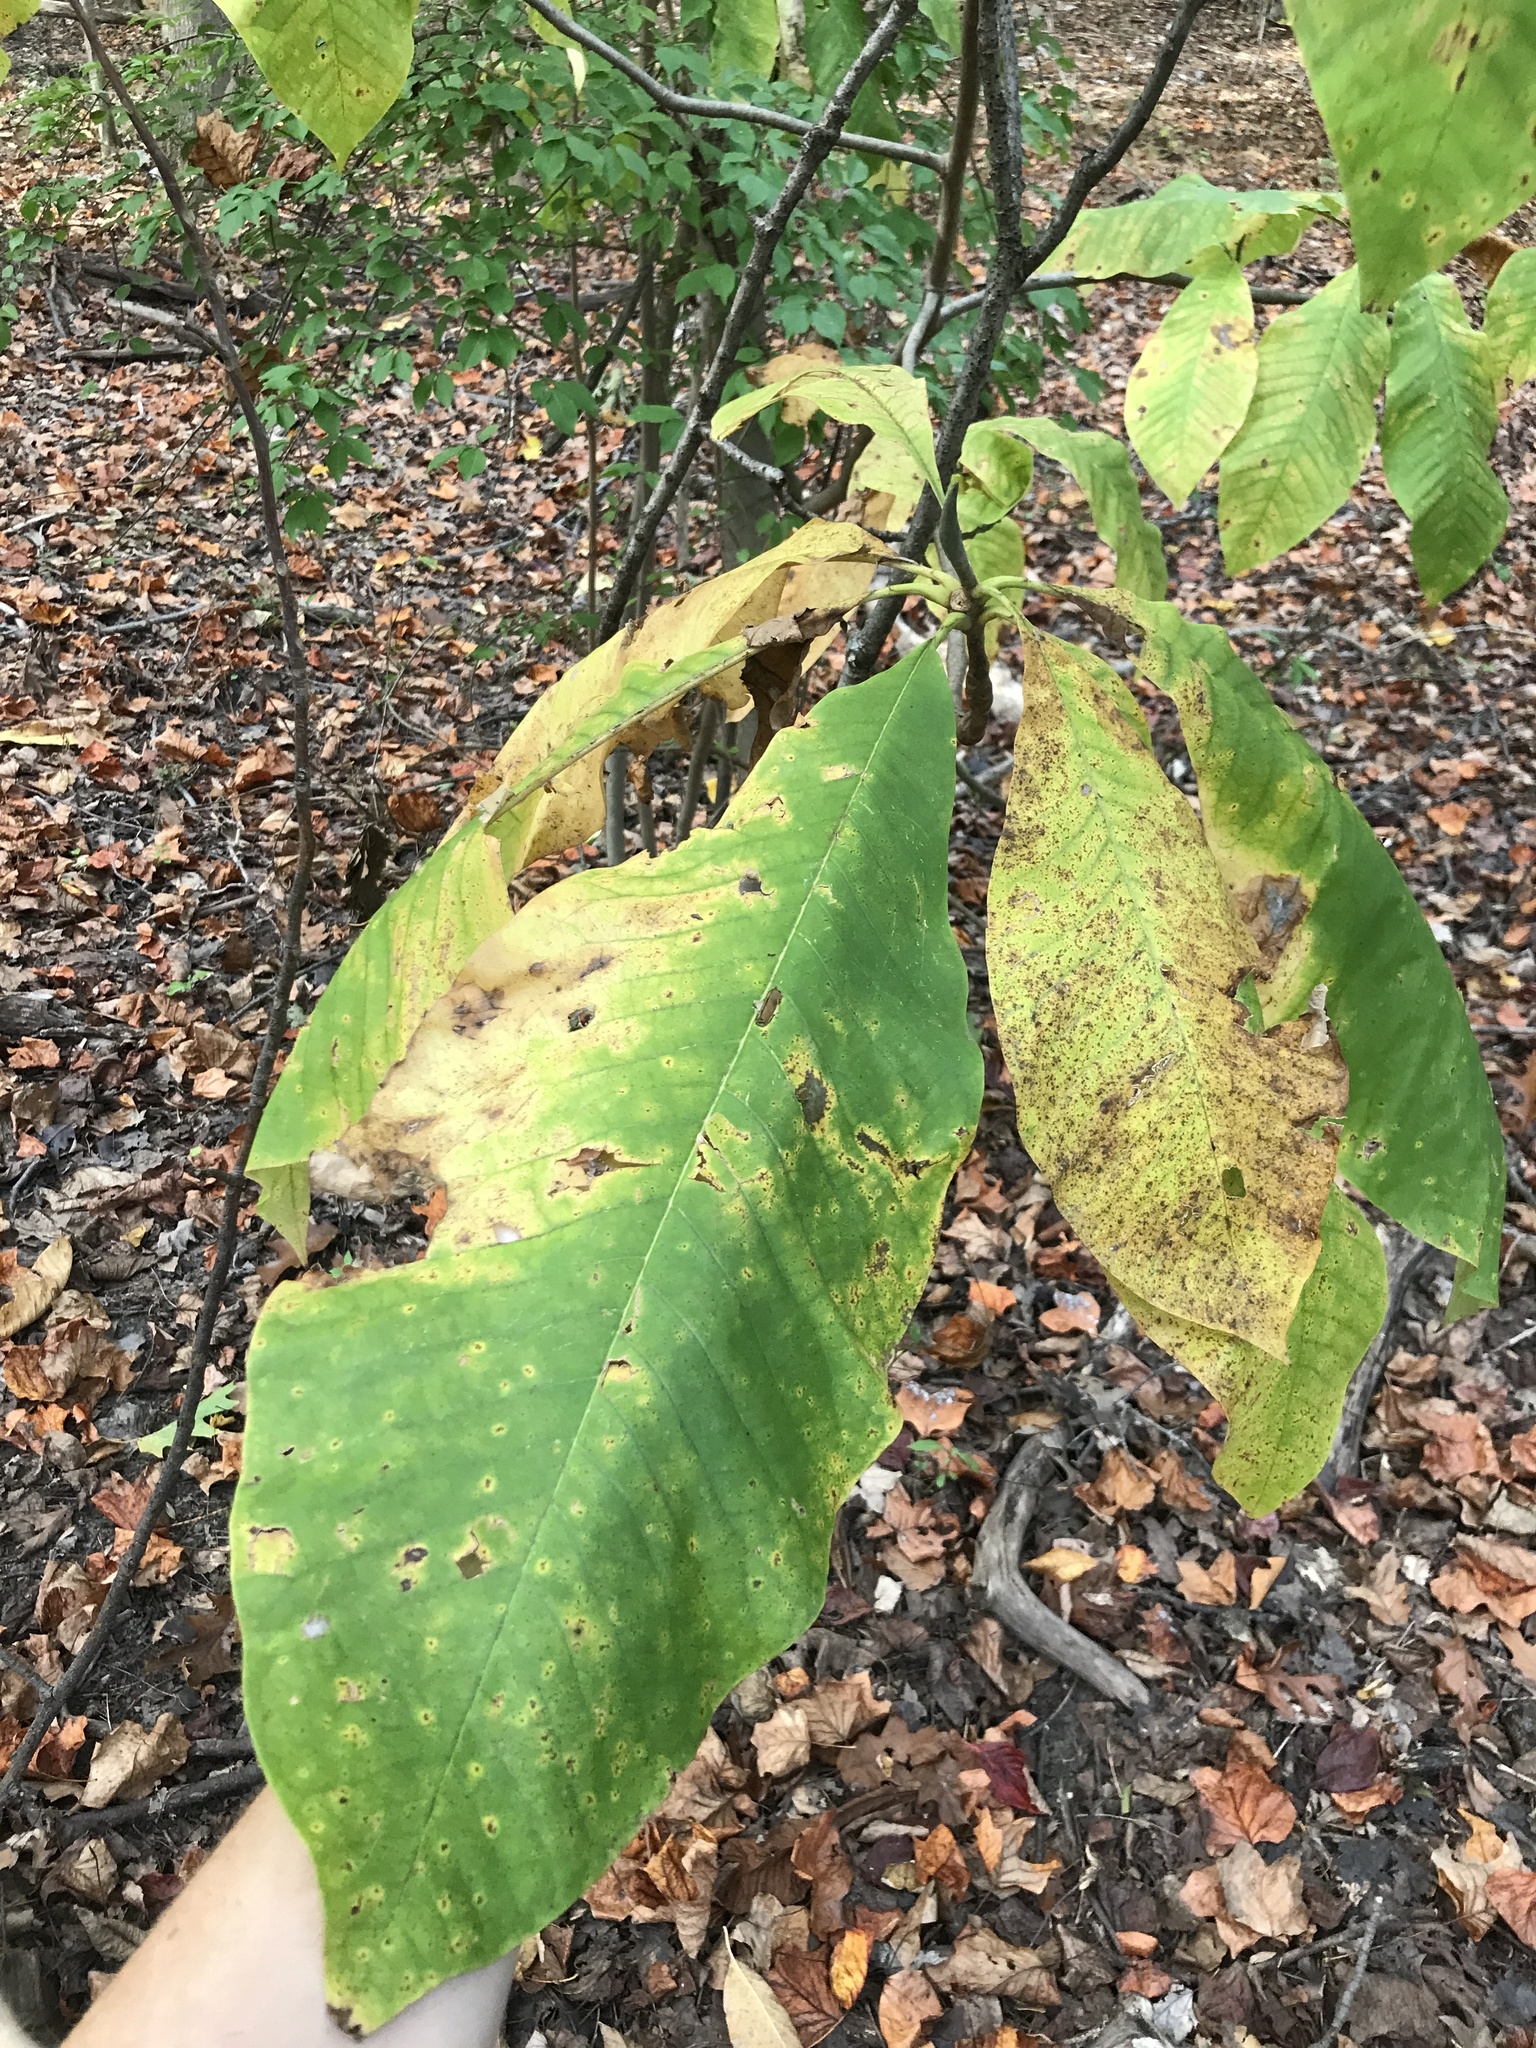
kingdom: Plantae
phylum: Tracheophyta
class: Magnoliopsida
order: Magnoliales
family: Magnoliaceae
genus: Magnolia
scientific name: Magnolia tripetala
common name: Umbrella magnolia
